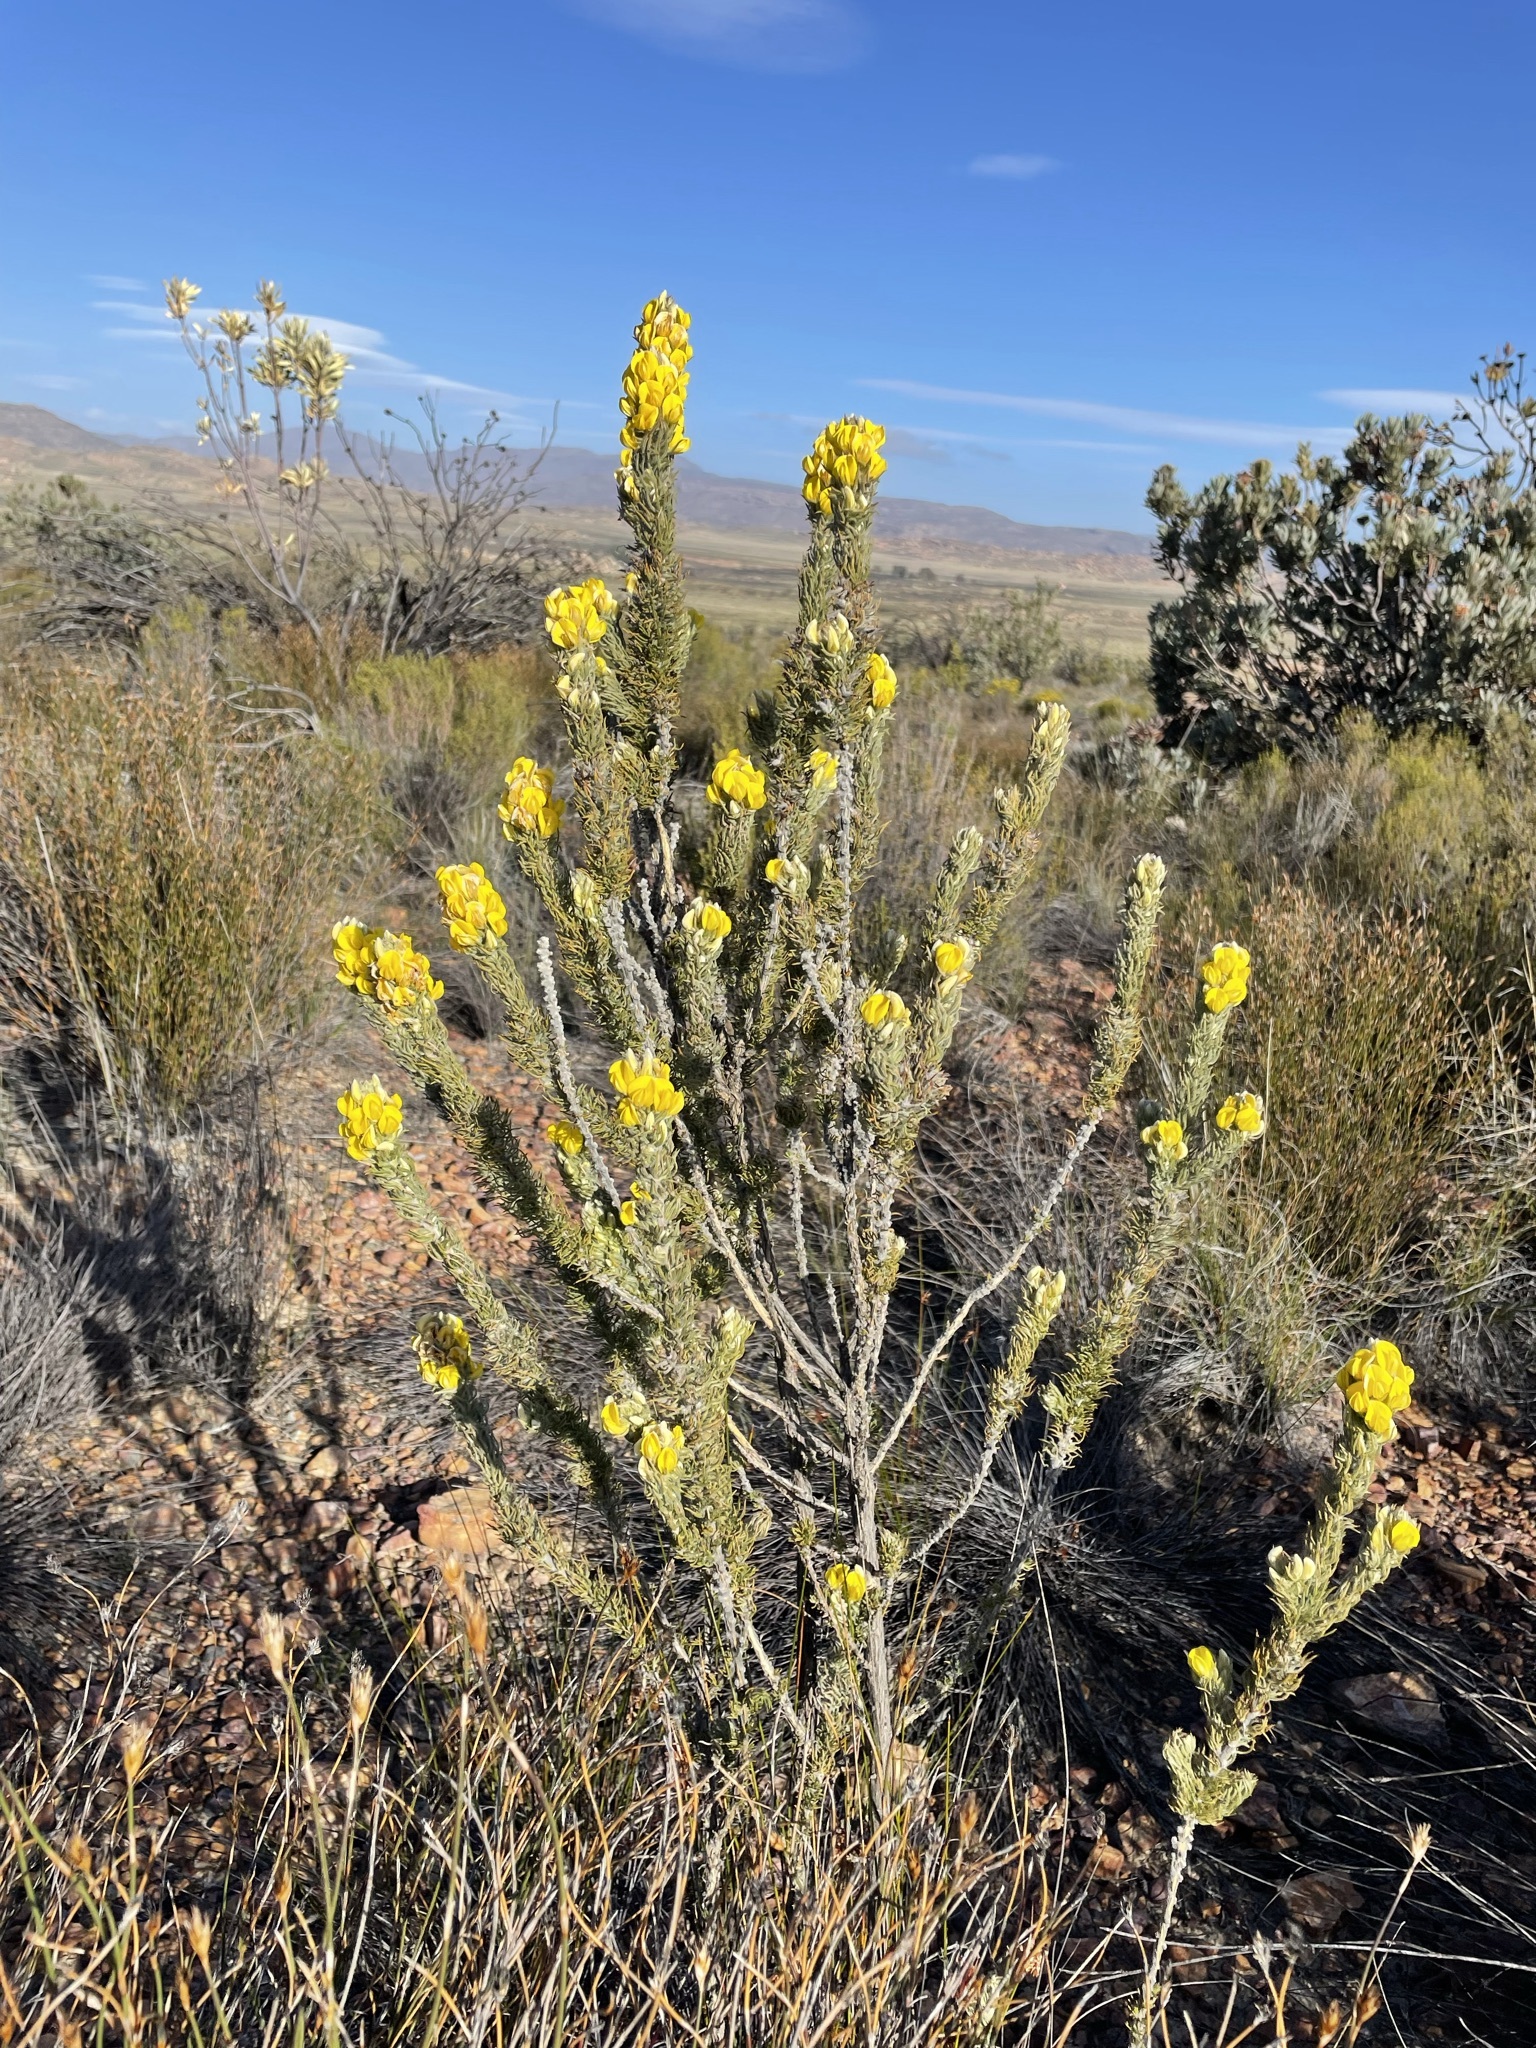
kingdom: Plantae
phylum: Tracheophyta
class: Magnoliopsida
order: Fabales
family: Fabaceae
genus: Aspalathus
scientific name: Aspalathus shawii
